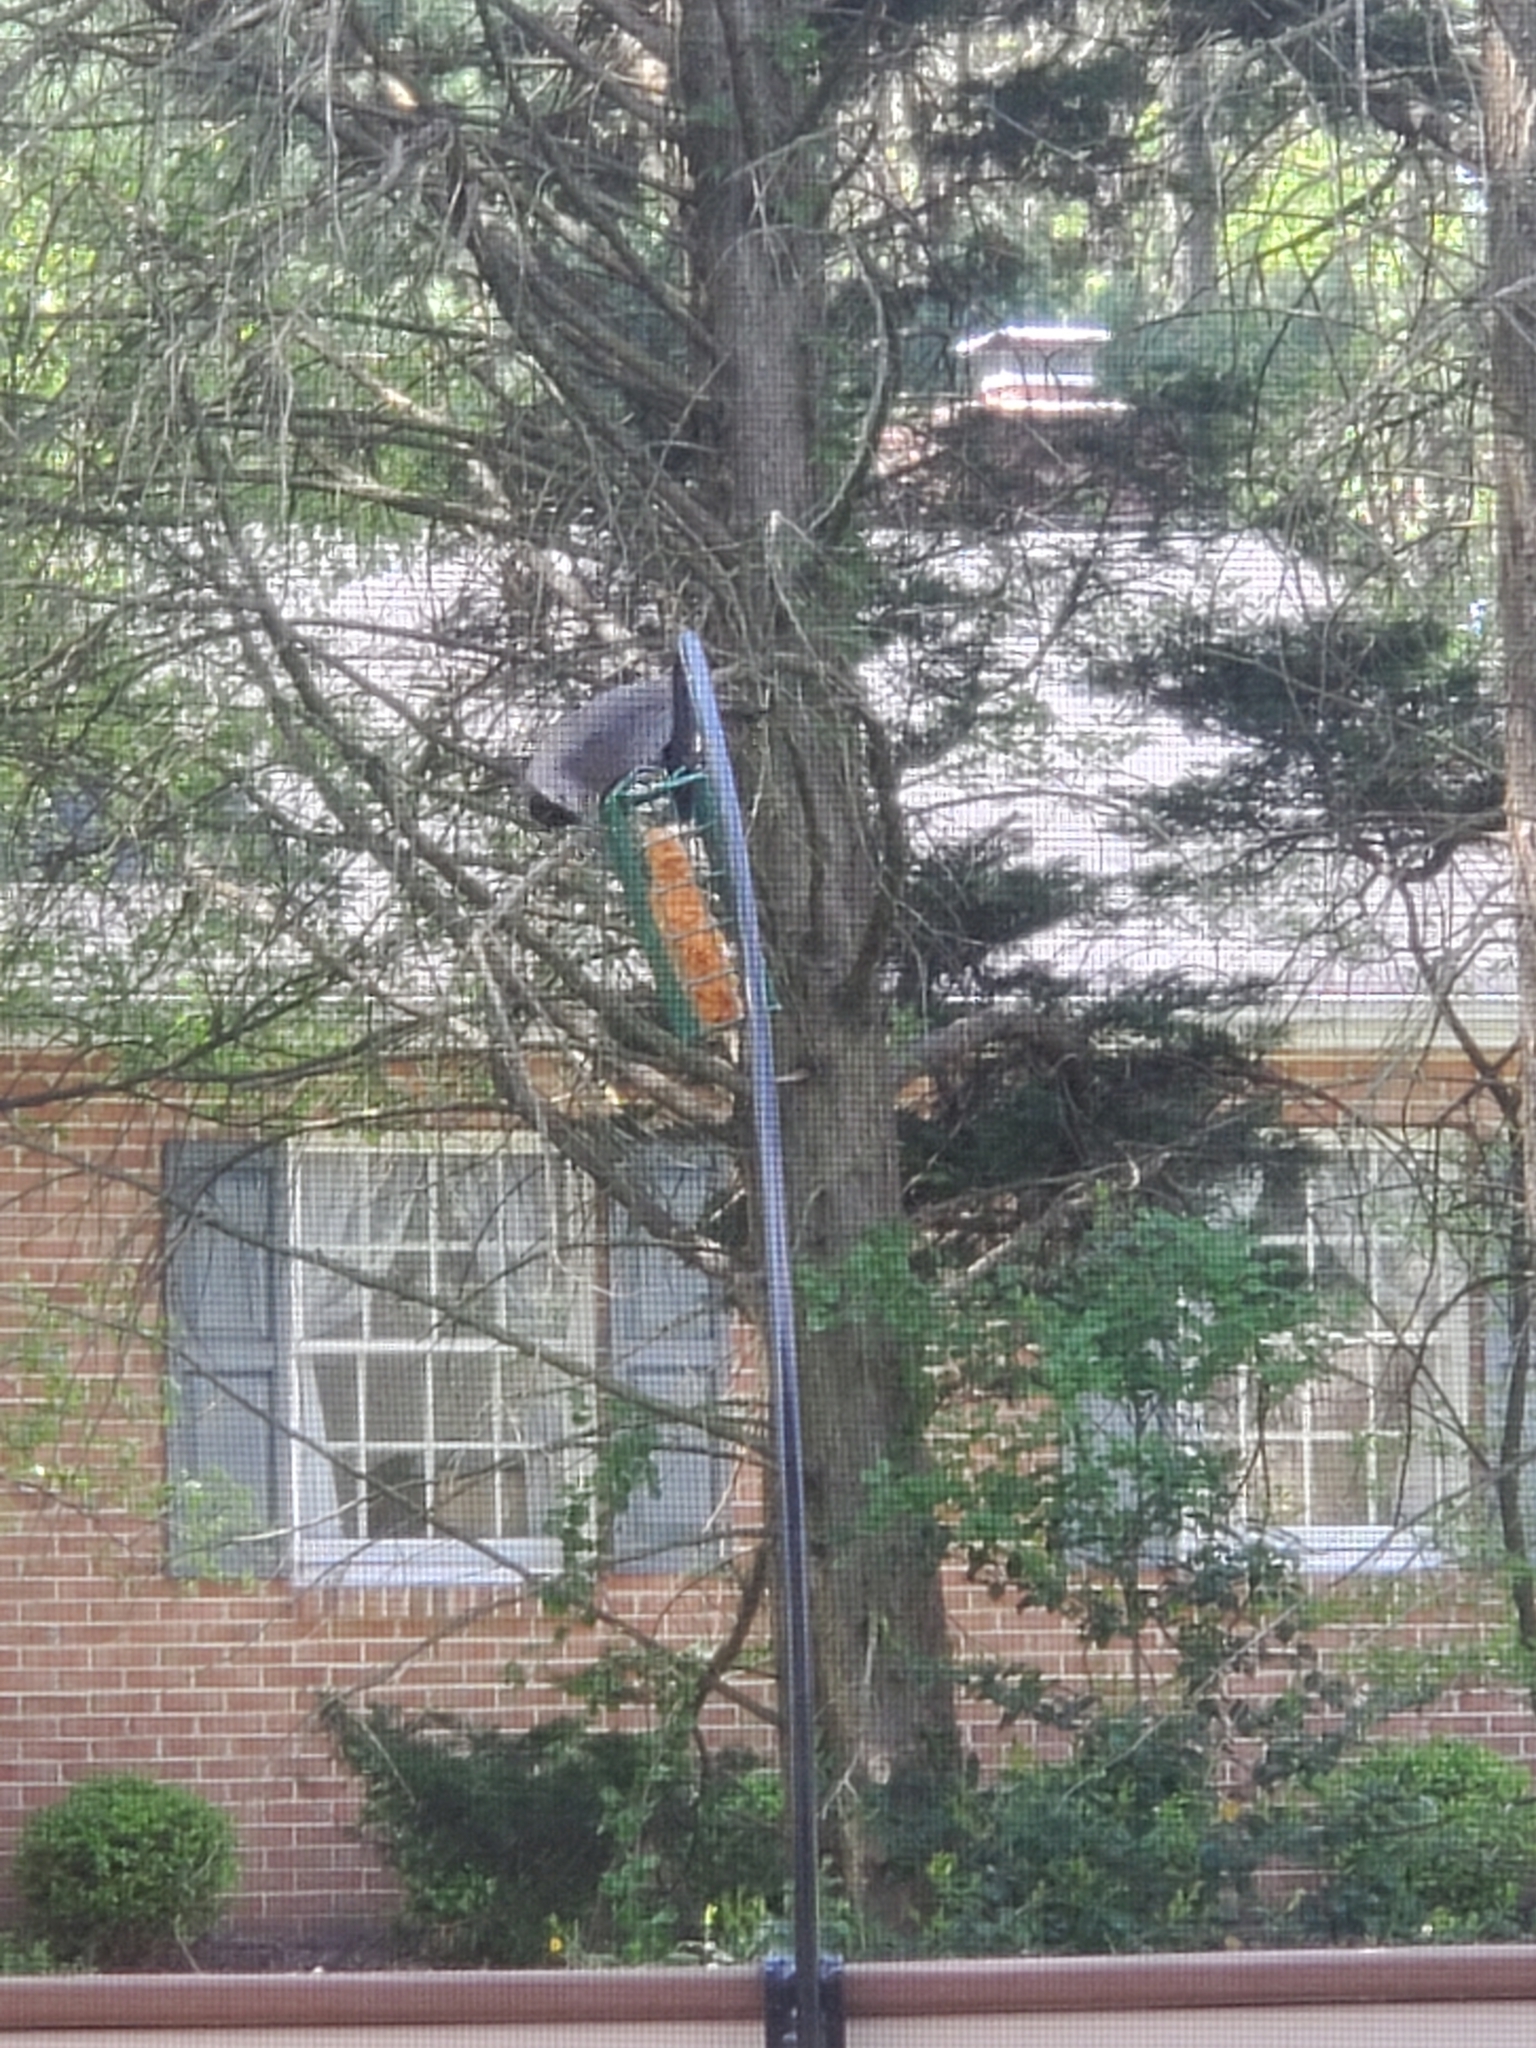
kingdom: Animalia
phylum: Chordata
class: Aves
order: Passeriformes
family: Mimidae
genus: Dumetella
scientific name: Dumetella carolinensis
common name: Gray catbird
